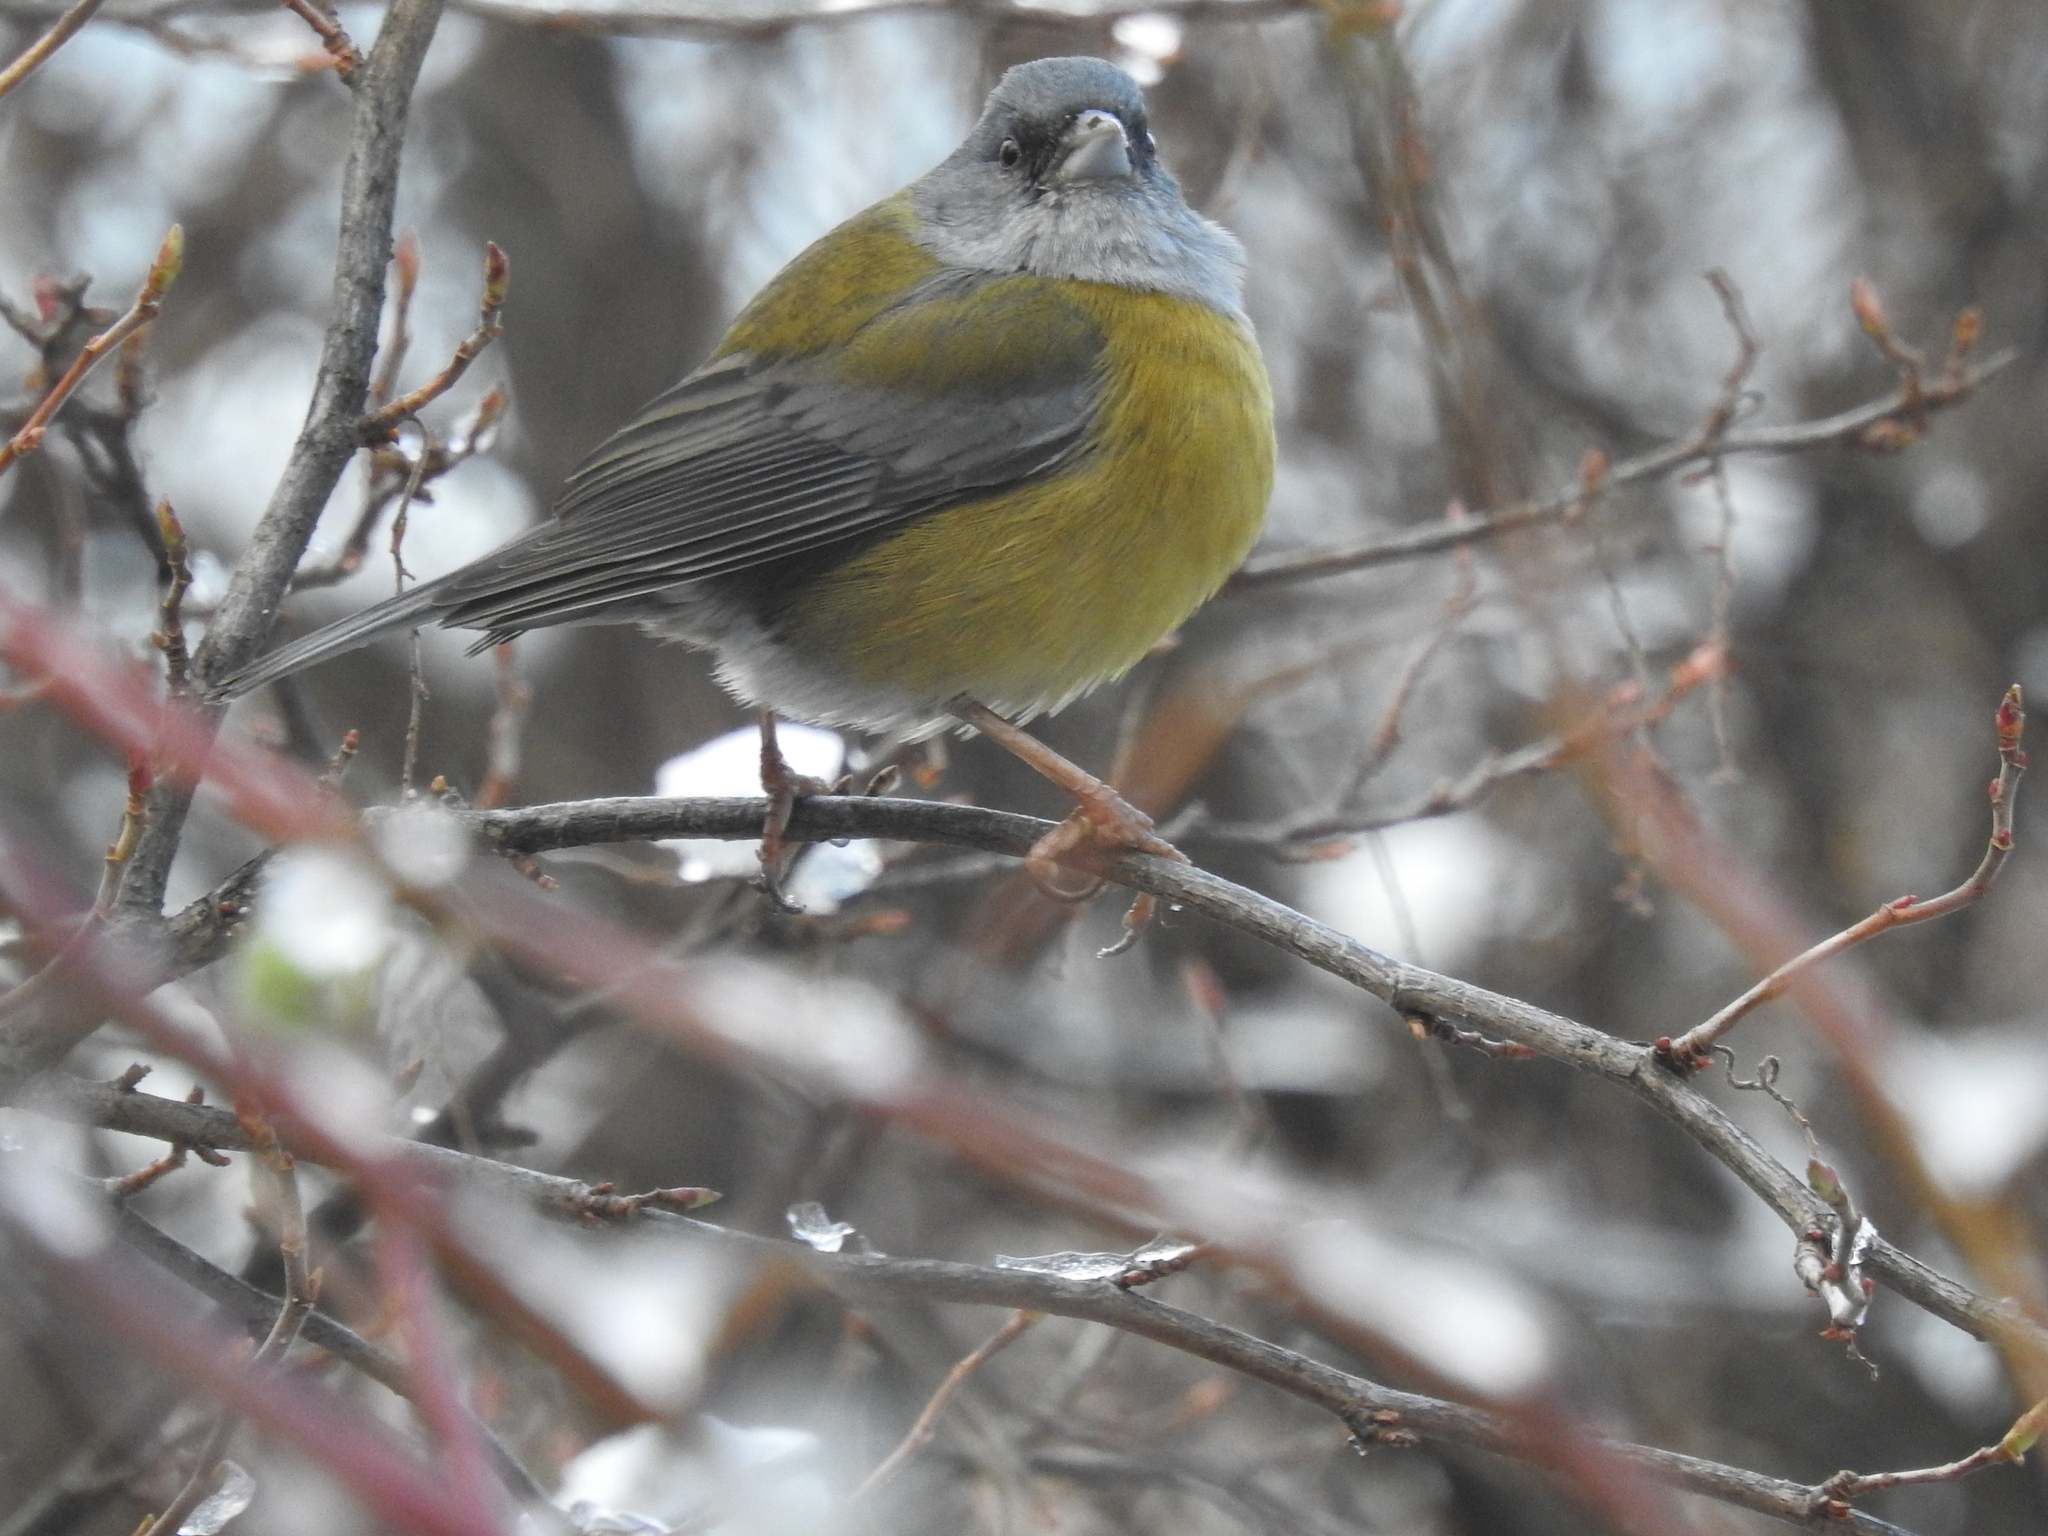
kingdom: Animalia
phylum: Chordata
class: Aves
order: Passeriformes
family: Thraupidae
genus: Phrygilus
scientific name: Phrygilus patagonicus
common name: Patagonian sierra finch
